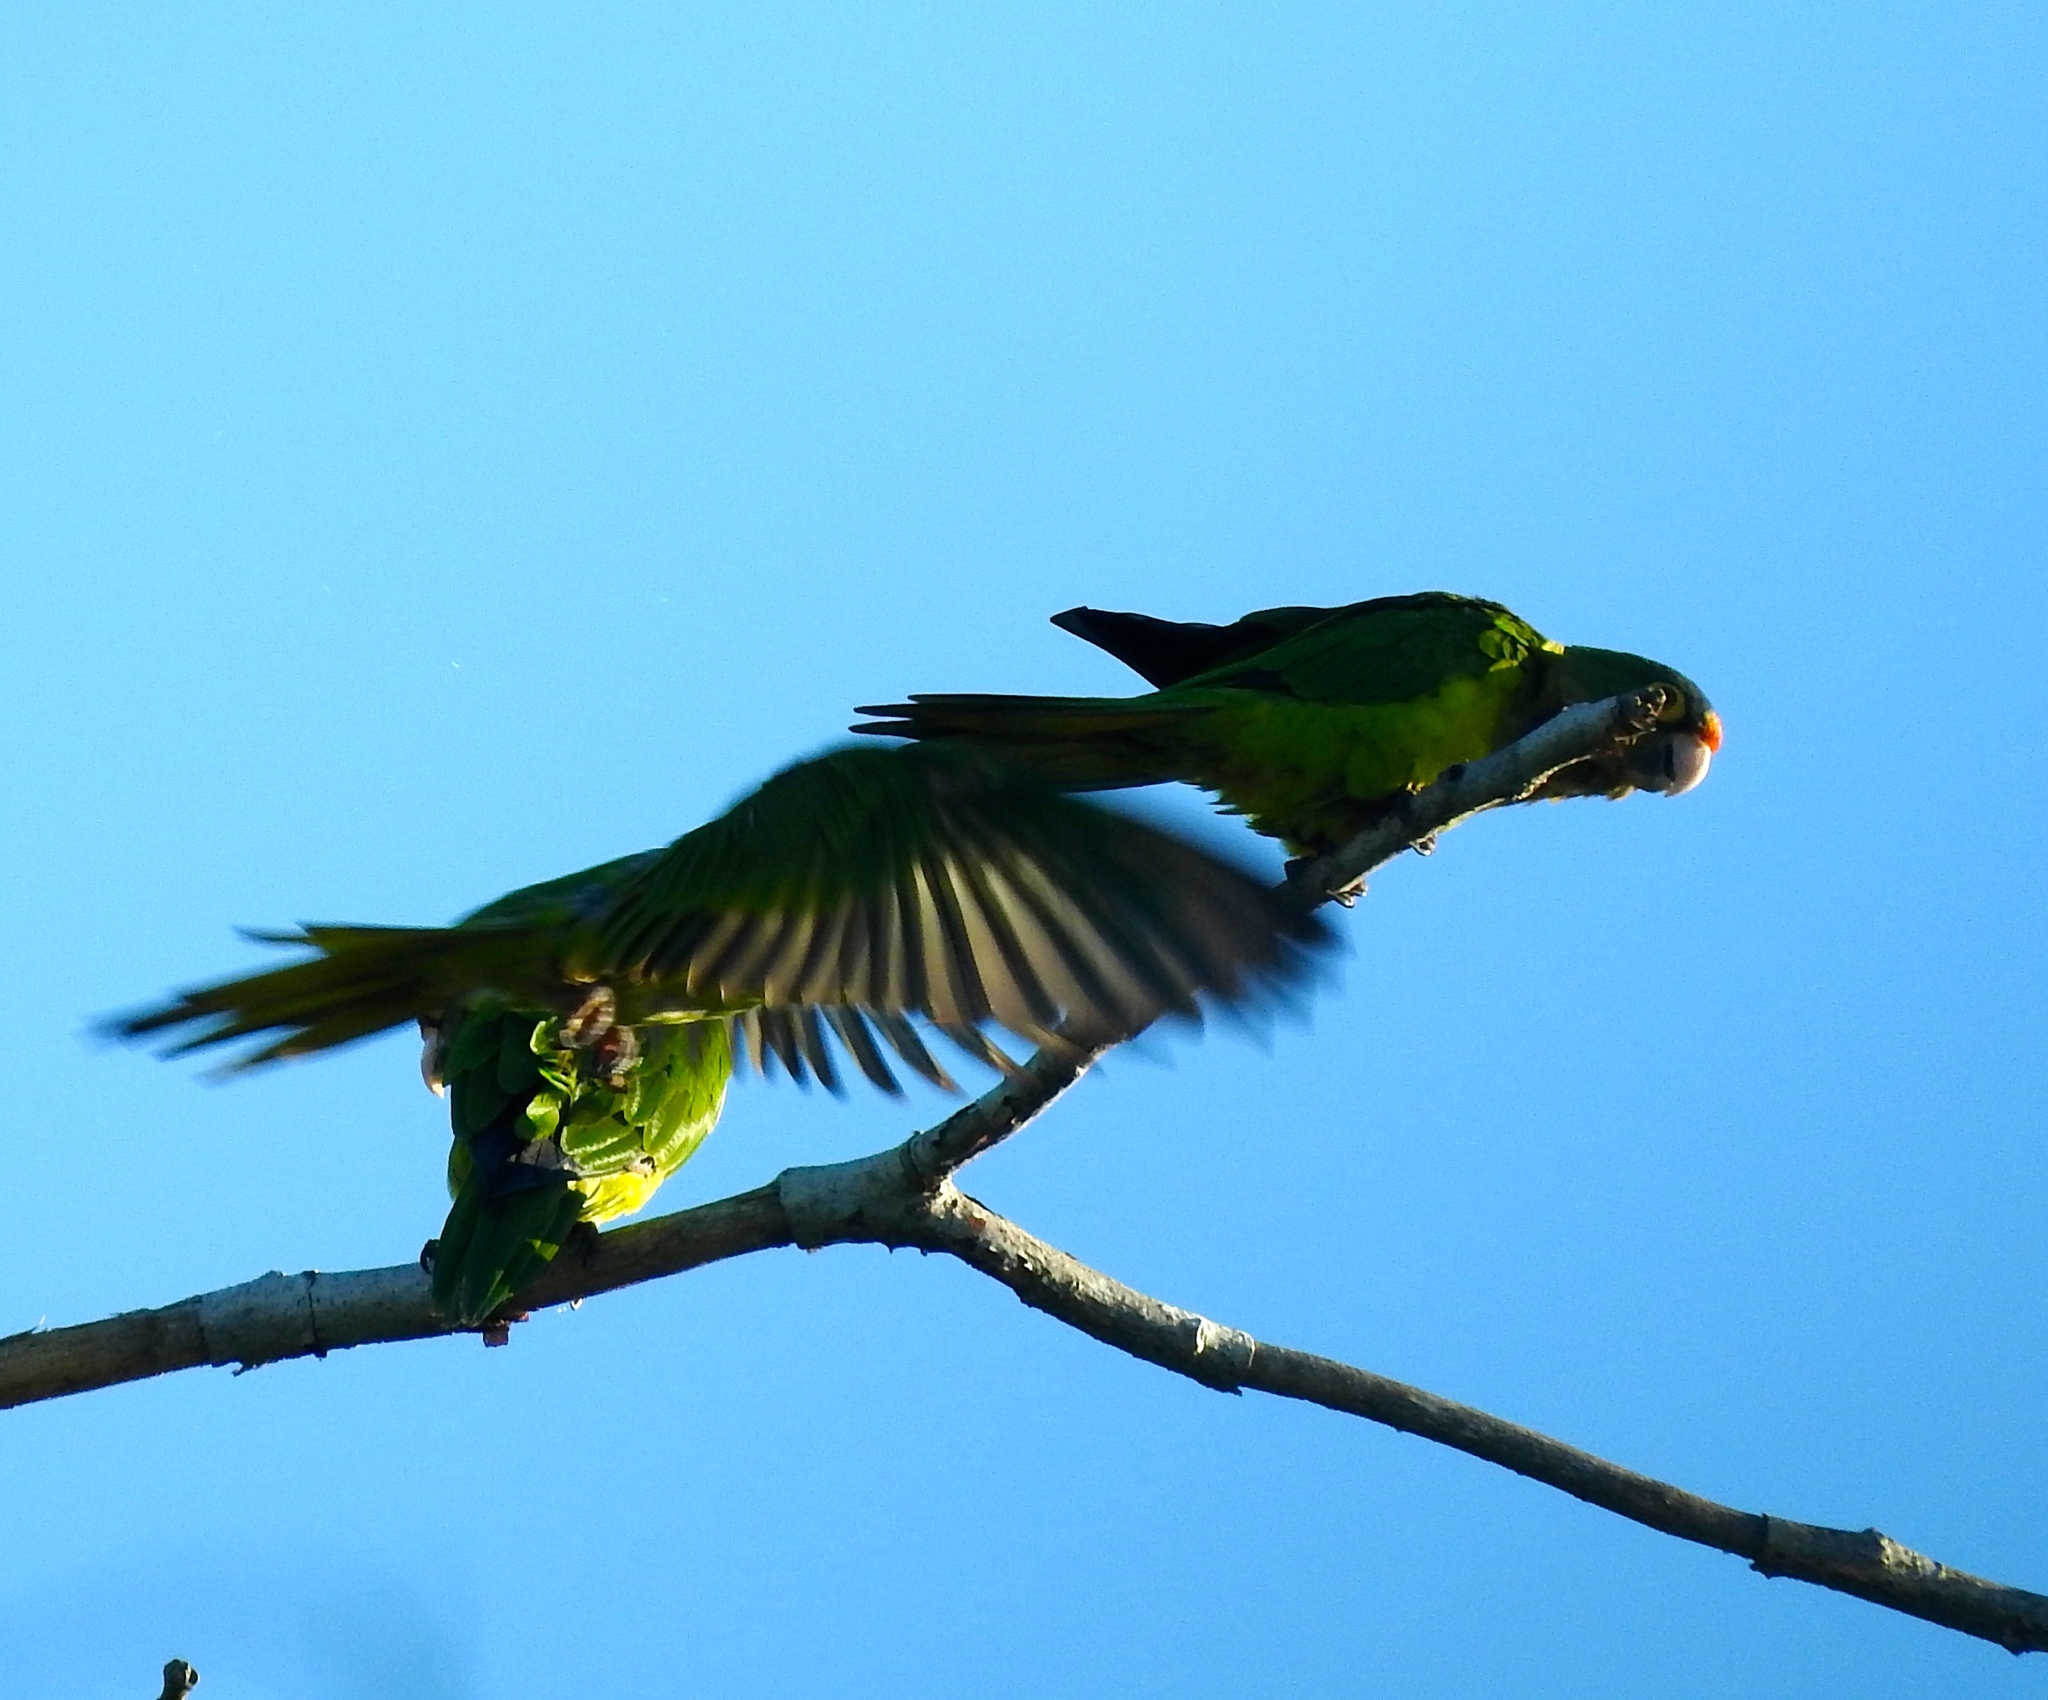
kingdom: Animalia
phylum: Chordata
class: Aves
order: Psittaciformes
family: Psittacidae
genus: Aratinga
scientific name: Aratinga canicularis
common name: Orange-fronted parakeet
